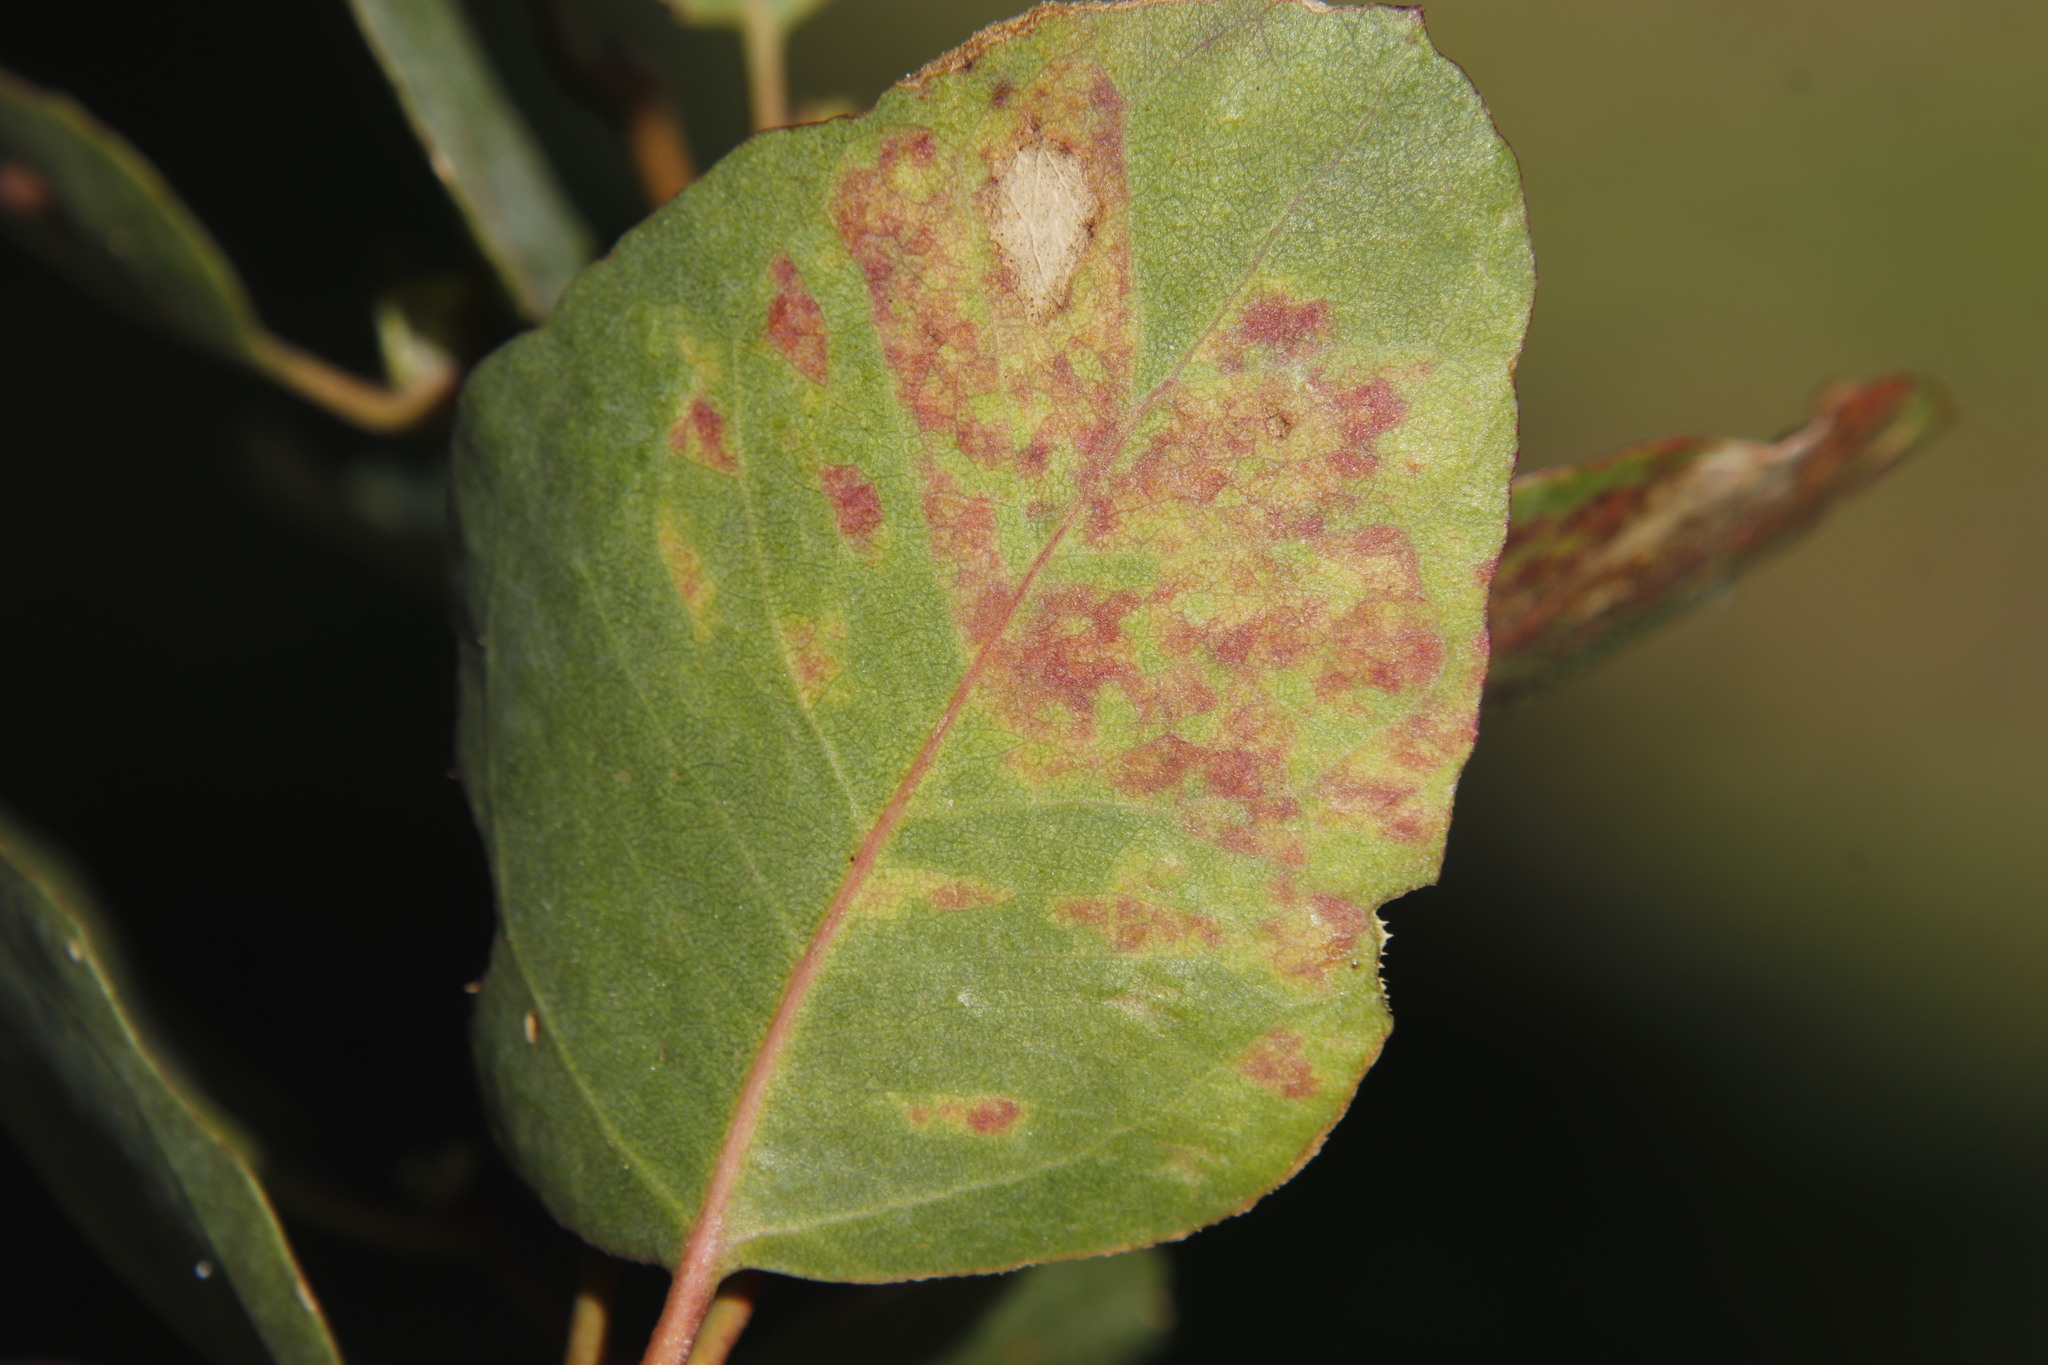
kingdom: Animalia
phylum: Arthropoda
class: Insecta
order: Hemiptera
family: Aphalaridae
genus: Spondyliaspis
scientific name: Spondyliaspis plicatuloides
